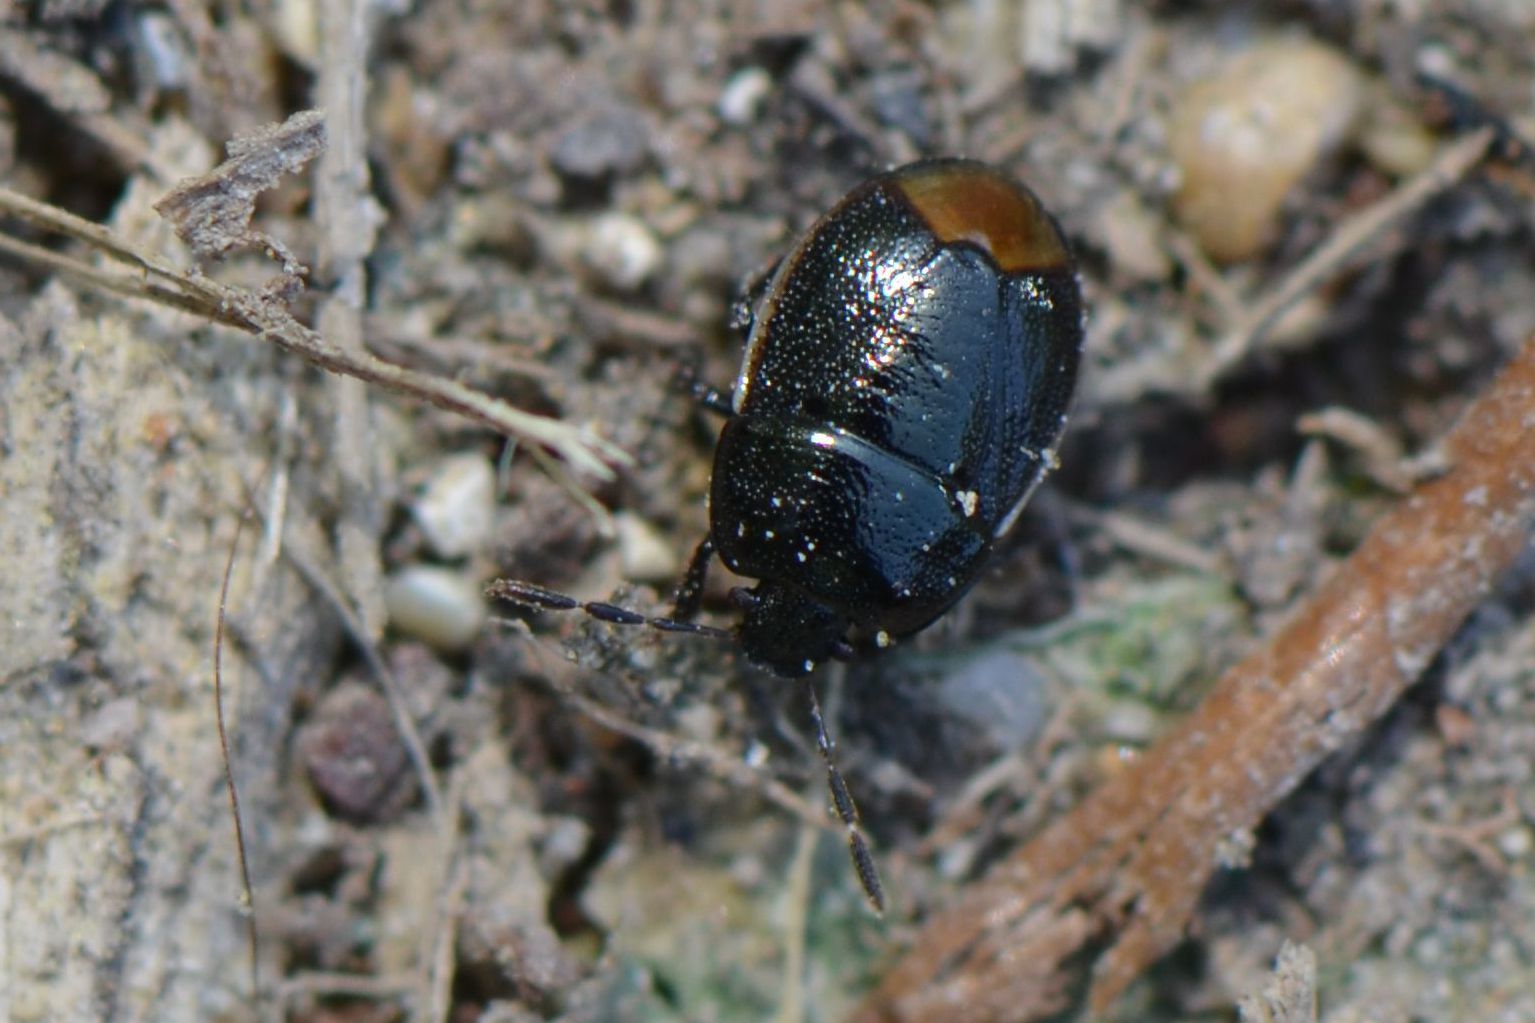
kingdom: Animalia
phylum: Arthropoda
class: Insecta
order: Hemiptera
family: Cydnidae
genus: Legnotus
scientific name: Legnotus limbosus
